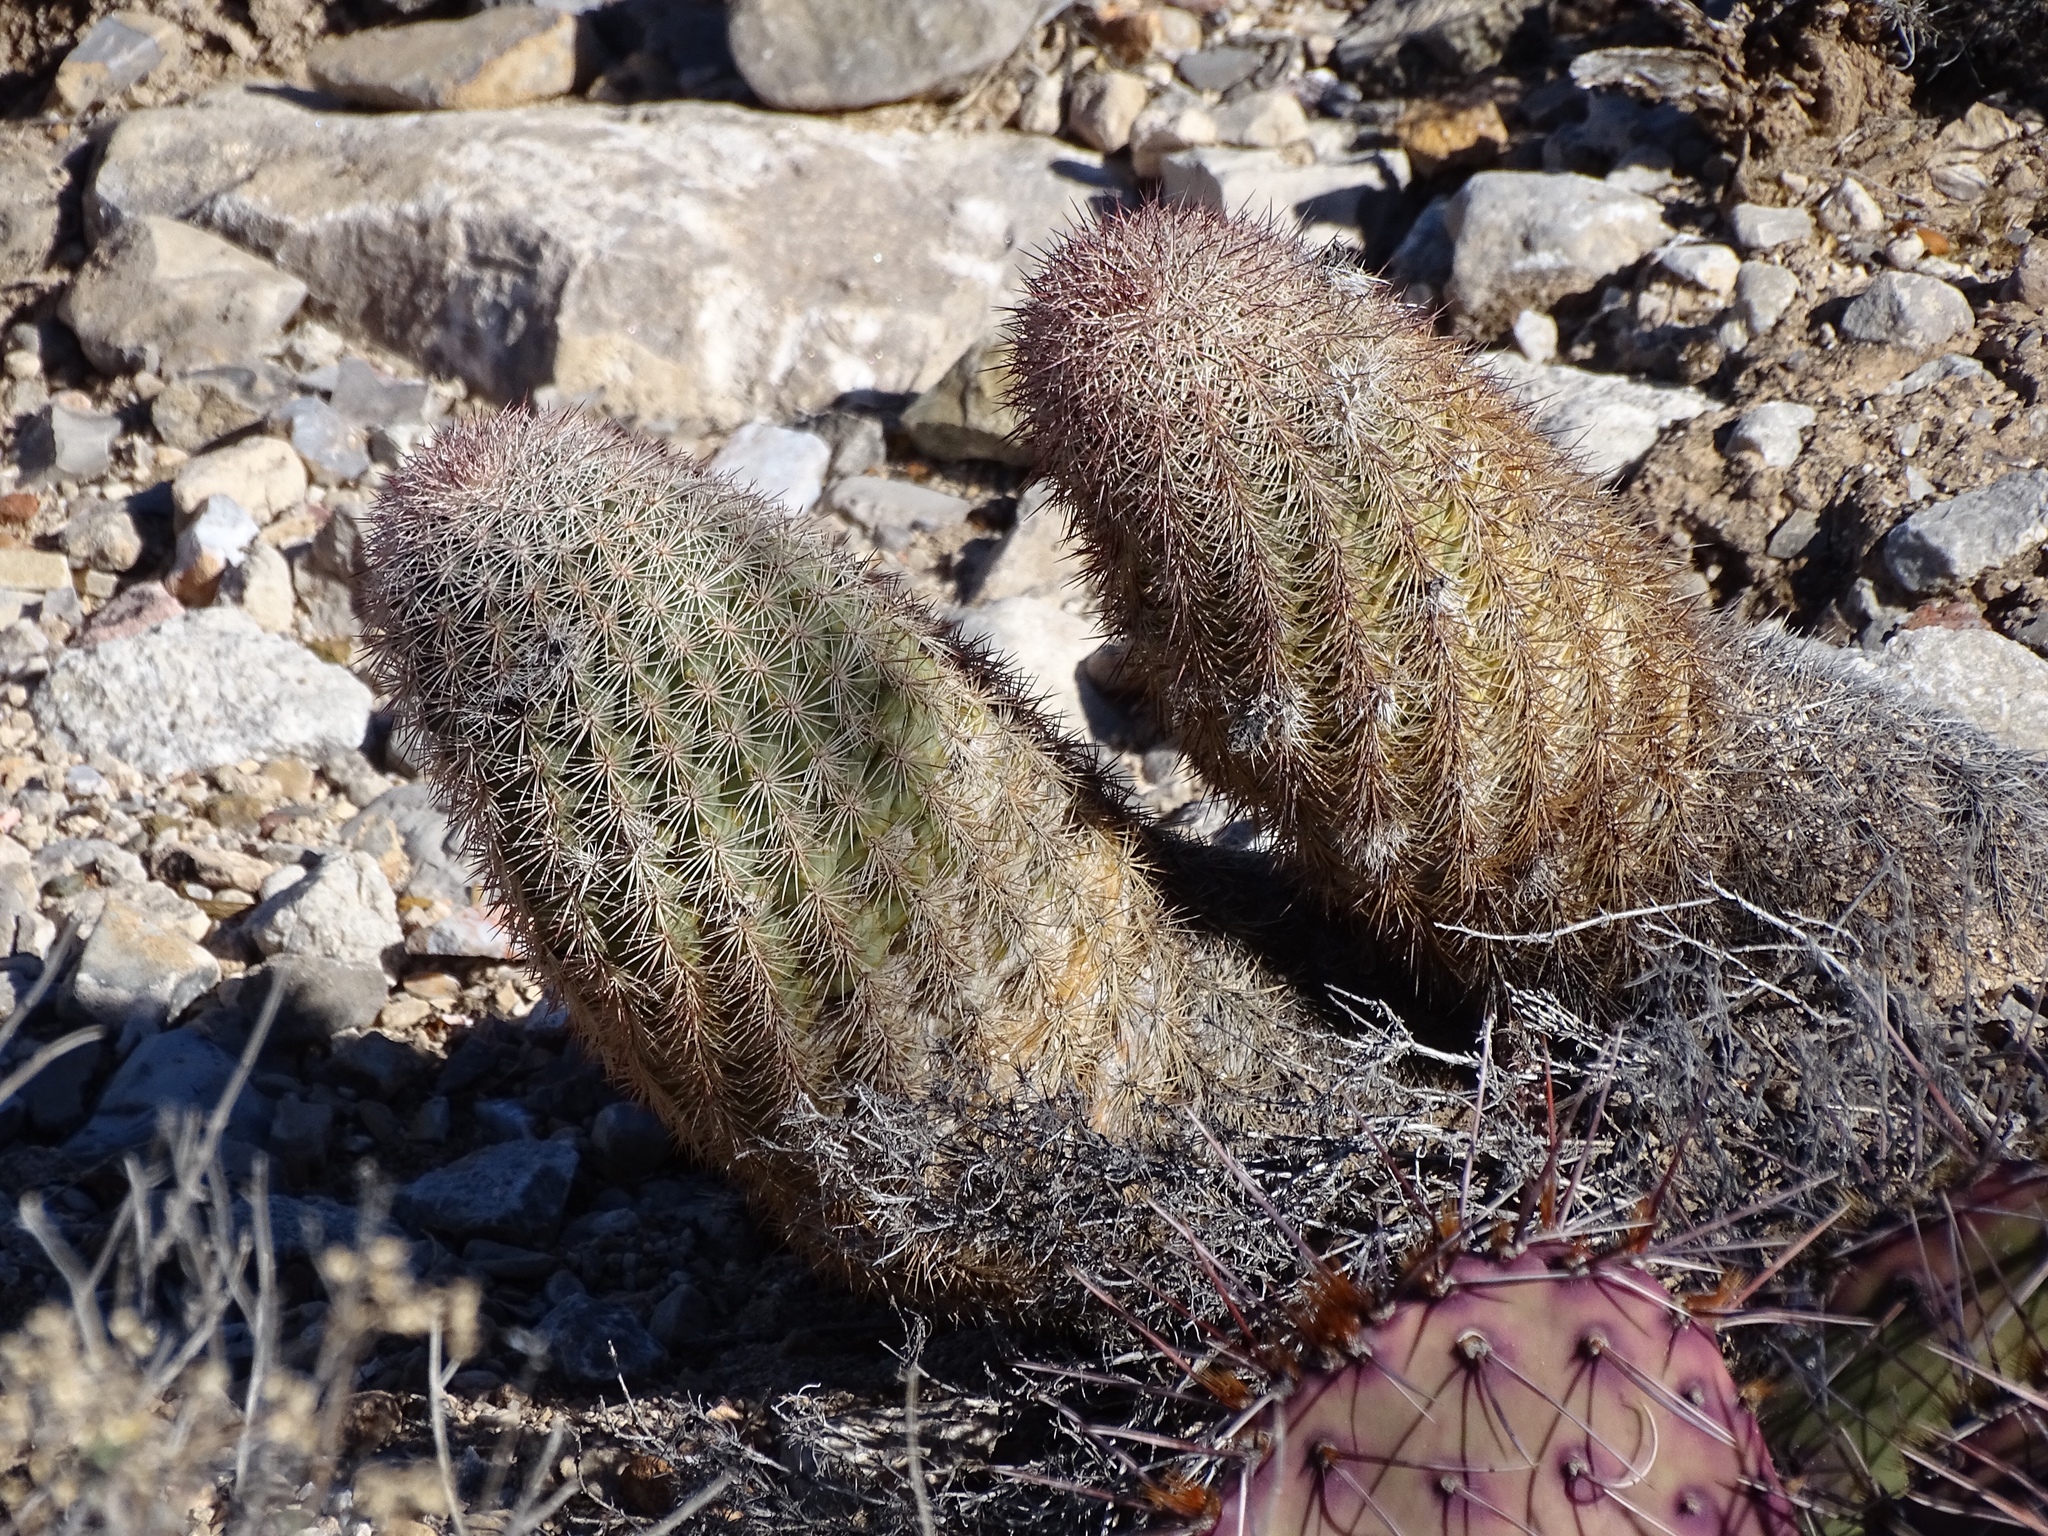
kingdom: Plantae
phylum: Tracheophyta
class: Magnoliopsida
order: Caryophyllales
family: Cactaceae
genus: Echinocereus
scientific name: Echinocereus dasyacanthus
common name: Spiny hedgehog cactus
